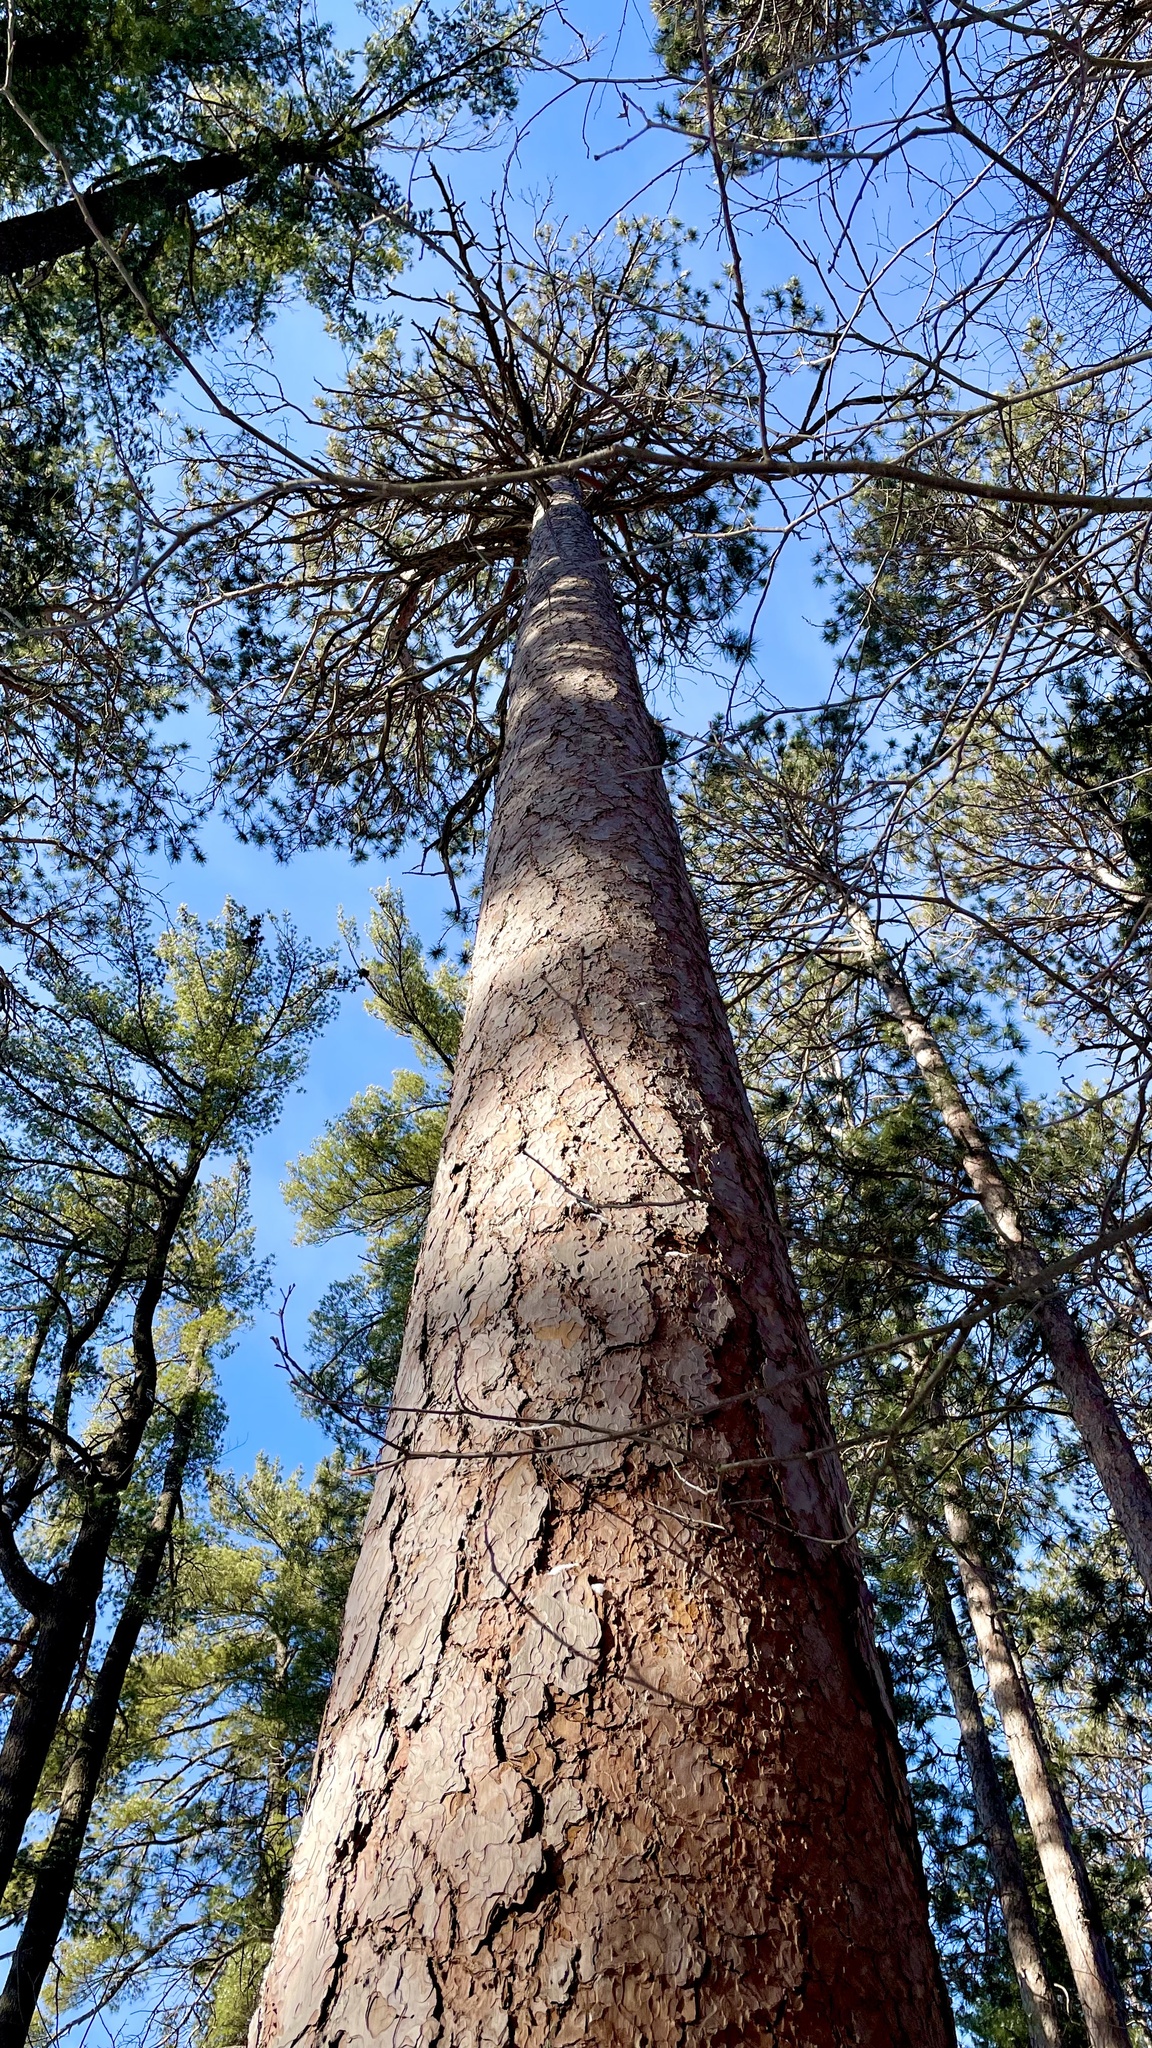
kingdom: Plantae
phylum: Tracheophyta
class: Pinopsida
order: Pinales
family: Pinaceae
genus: Pinus
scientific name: Pinus resinosa
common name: Norway pine
